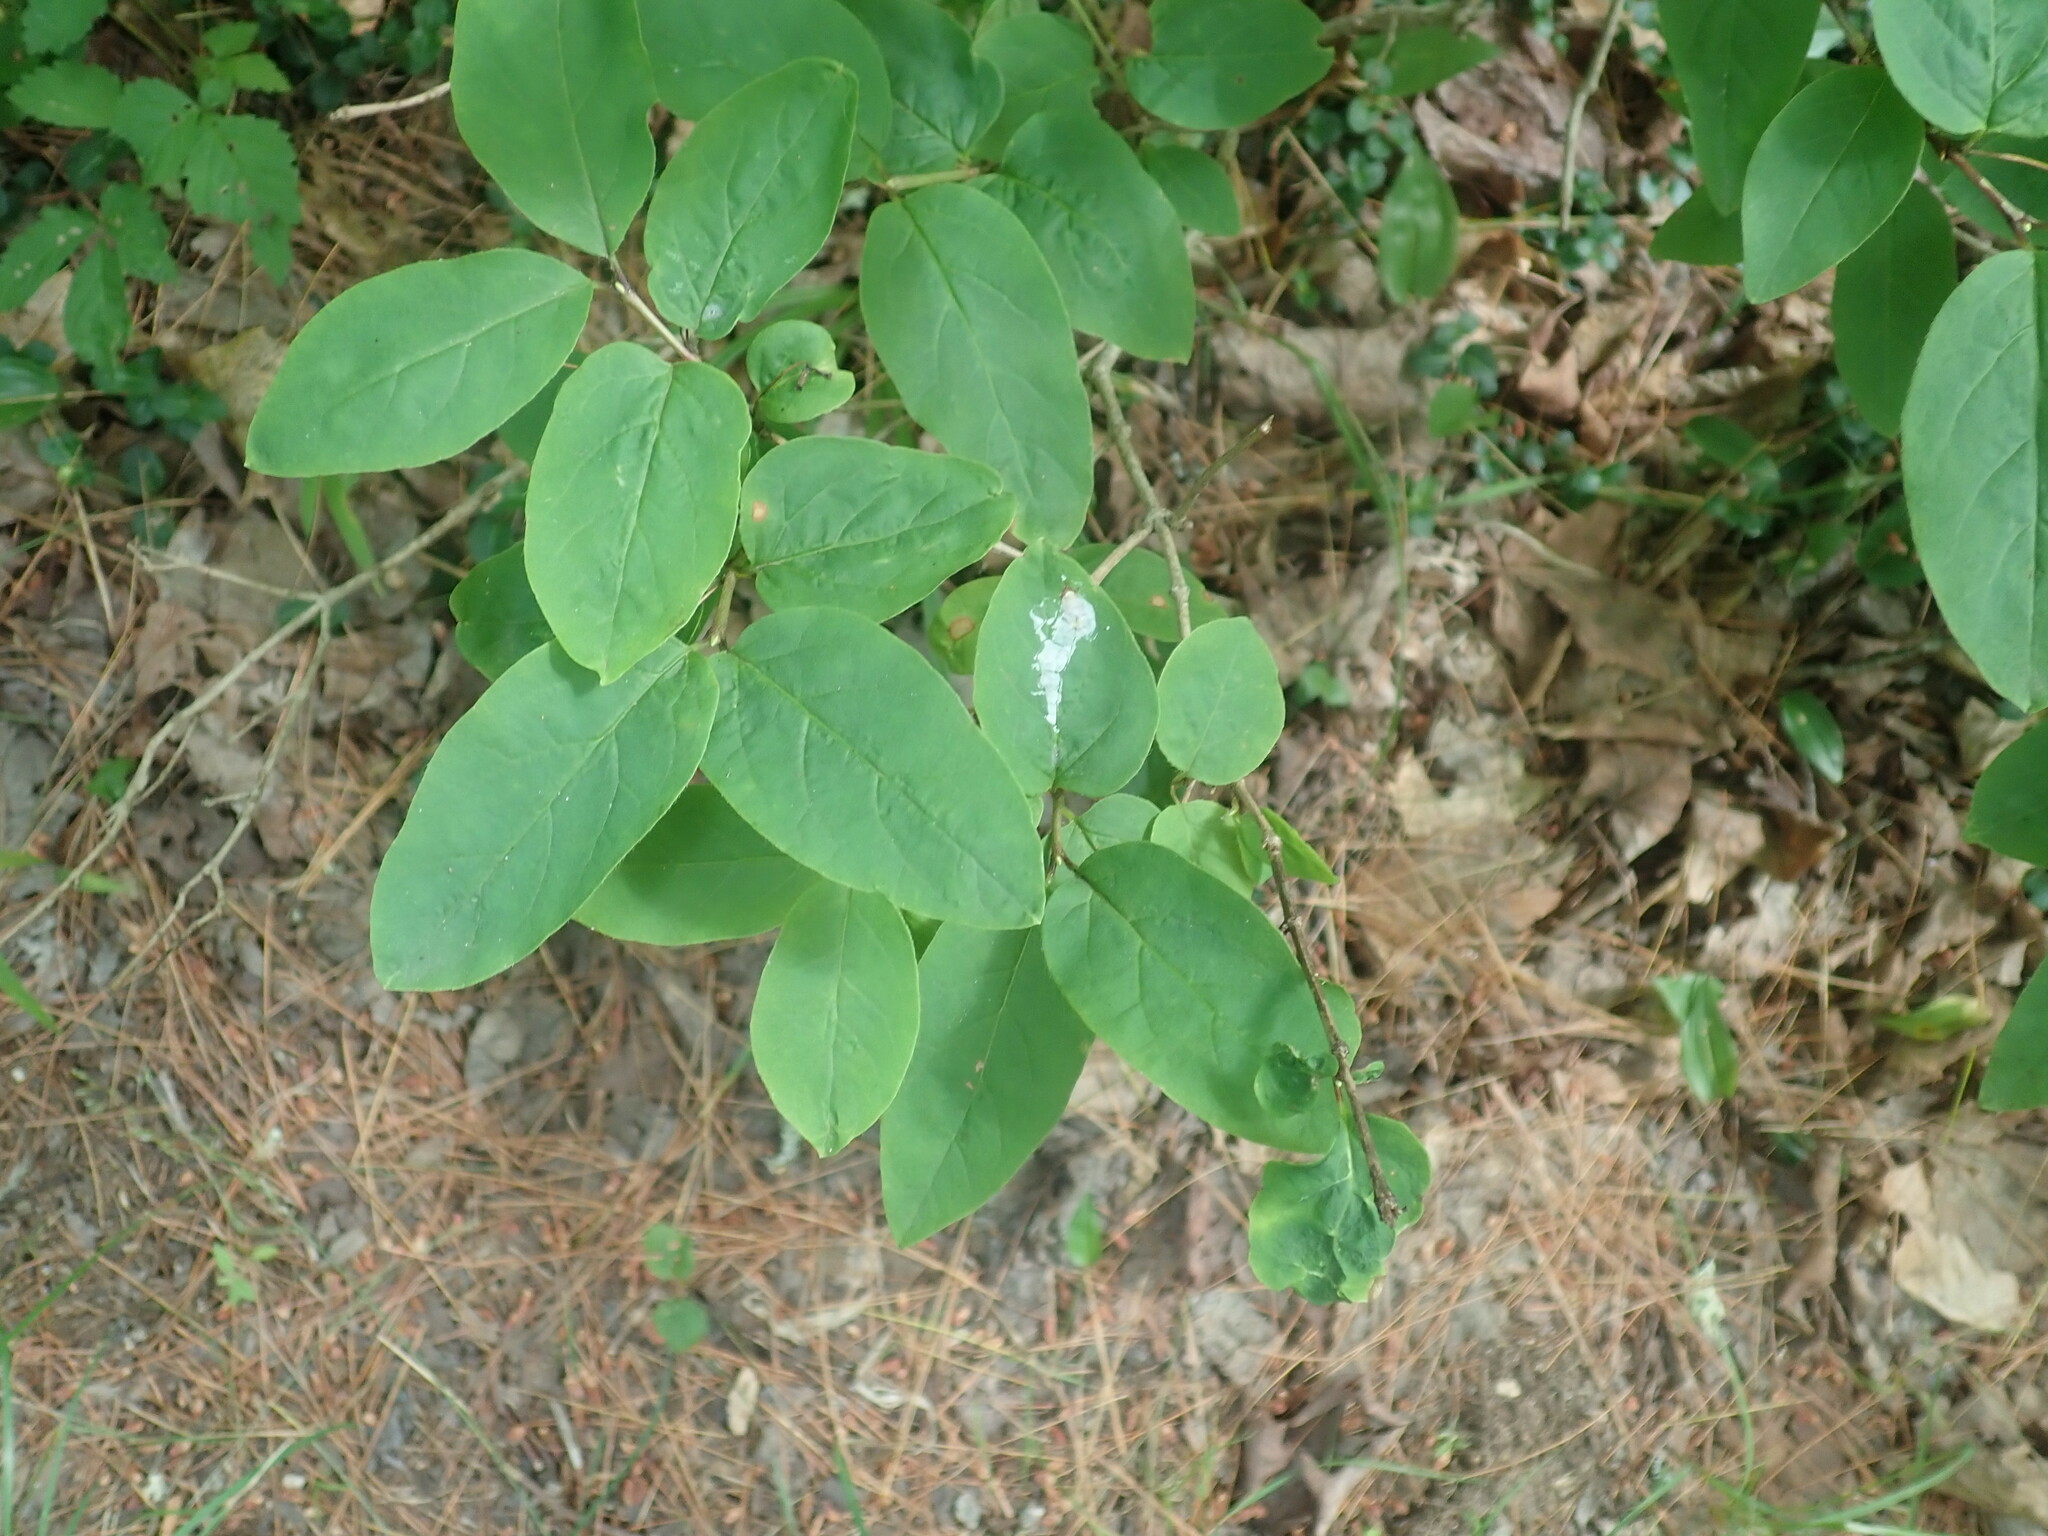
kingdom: Plantae
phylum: Tracheophyta
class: Magnoliopsida
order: Dipsacales
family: Caprifoliaceae
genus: Lonicera
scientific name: Lonicera canadensis
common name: American fly-honeysuckle
